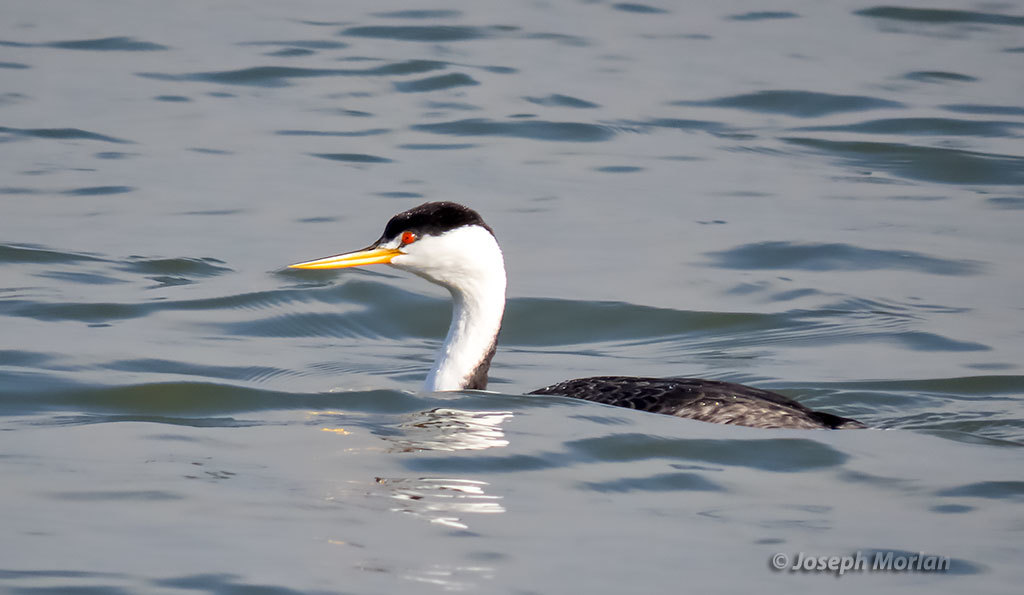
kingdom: Animalia
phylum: Chordata
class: Aves
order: Podicipediformes
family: Podicipedidae
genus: Aechmophorus
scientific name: Aechmophorus clarkii
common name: Clark's grebe
